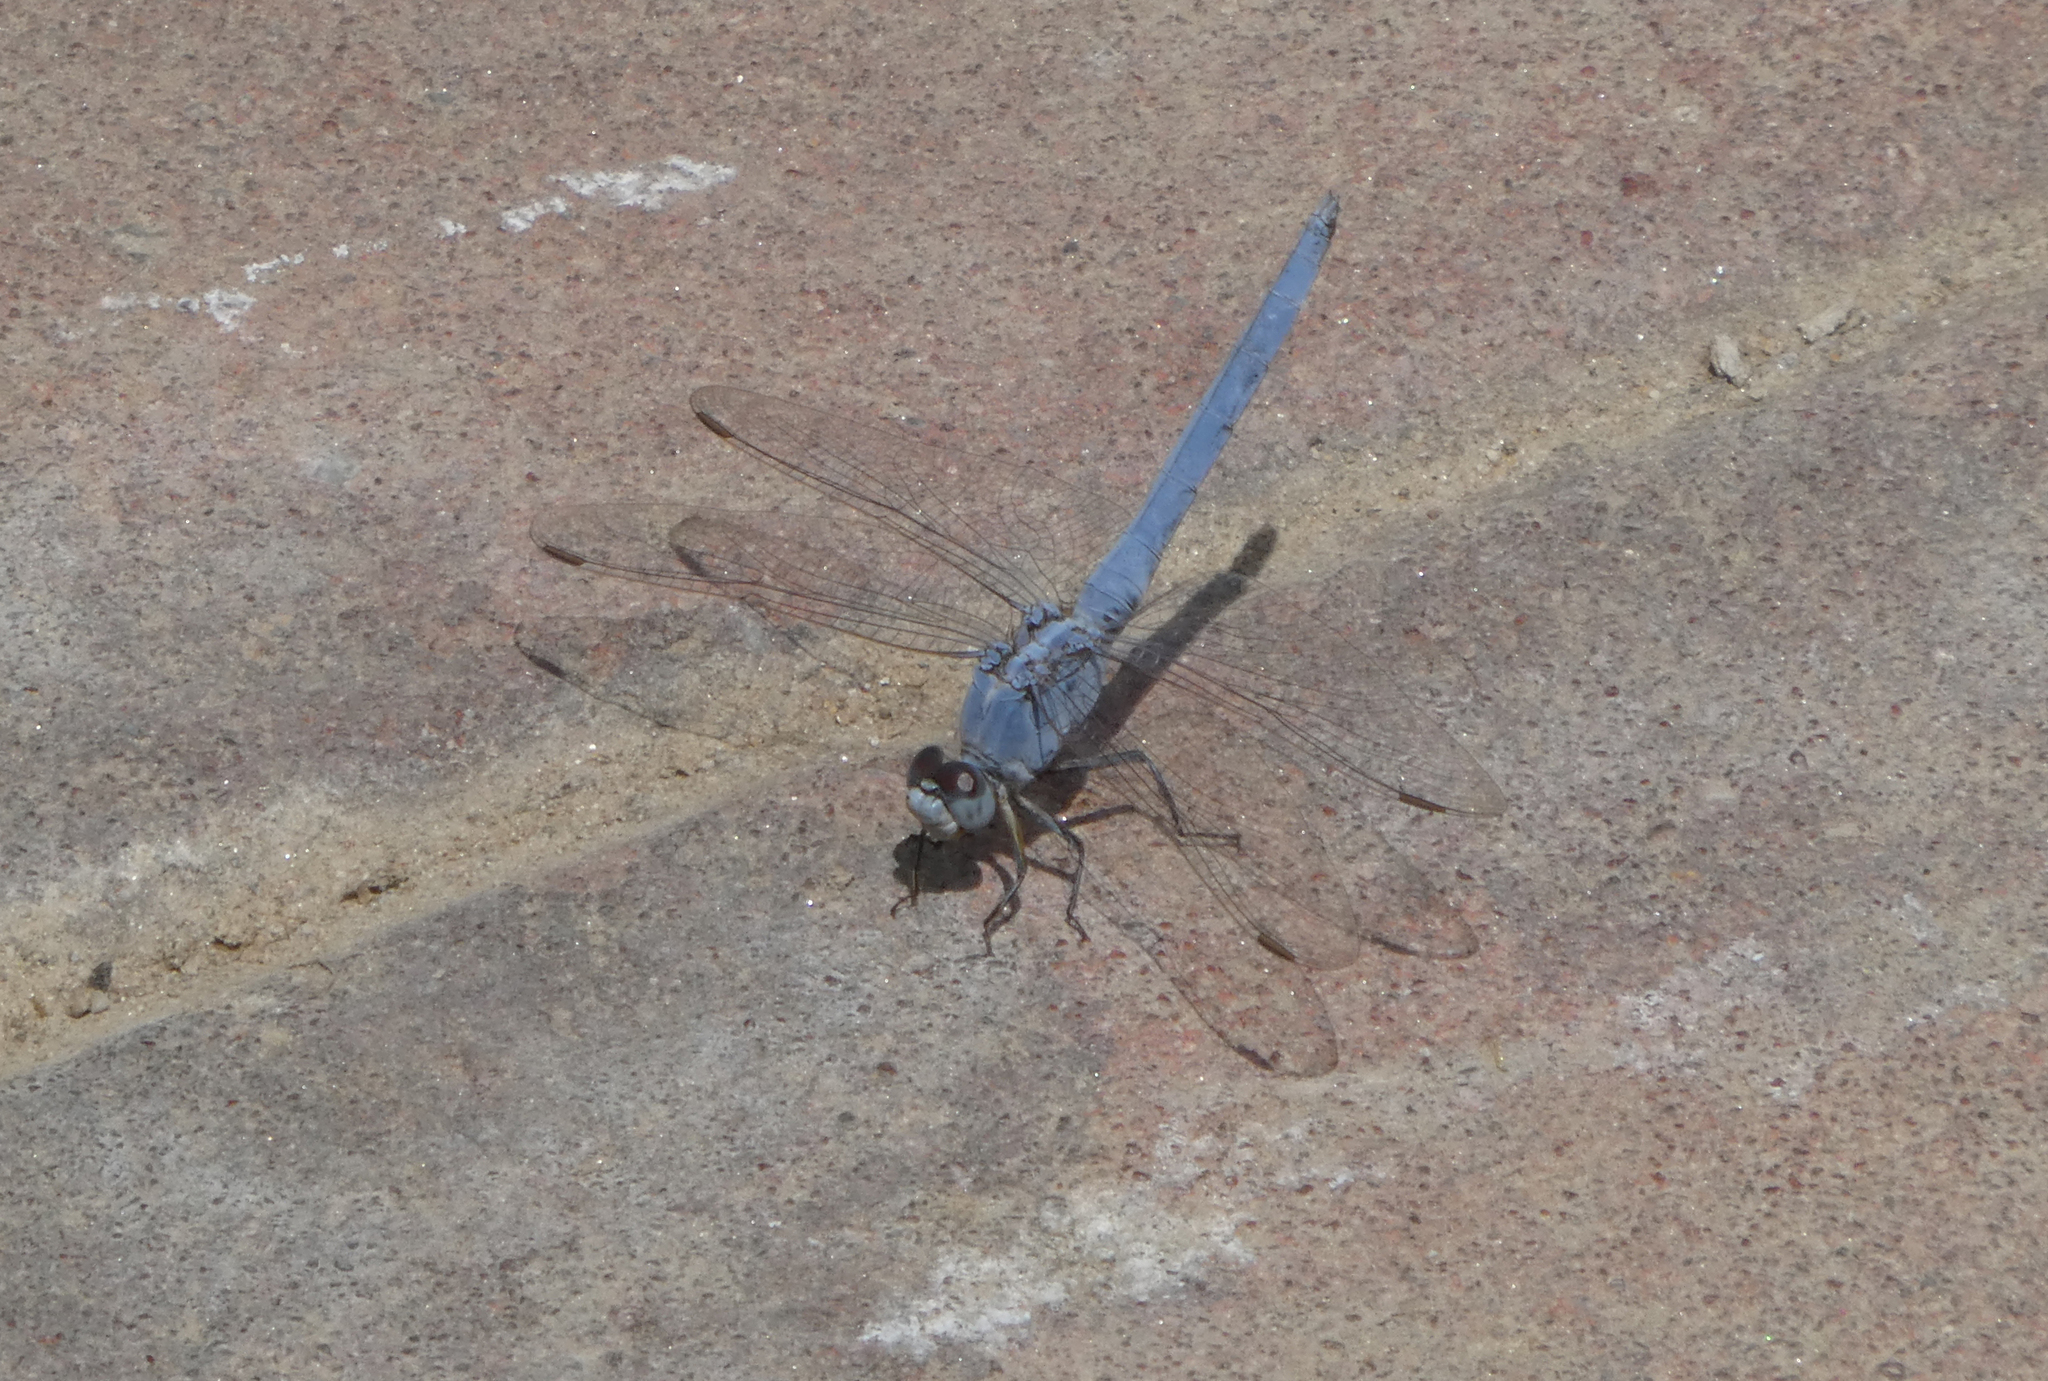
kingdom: Animalia
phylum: Arthropoda
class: Insecta
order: Odonata
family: Libellulidae
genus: Orthetrum
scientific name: Orthetrum taeniolatum
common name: Small skimmer
